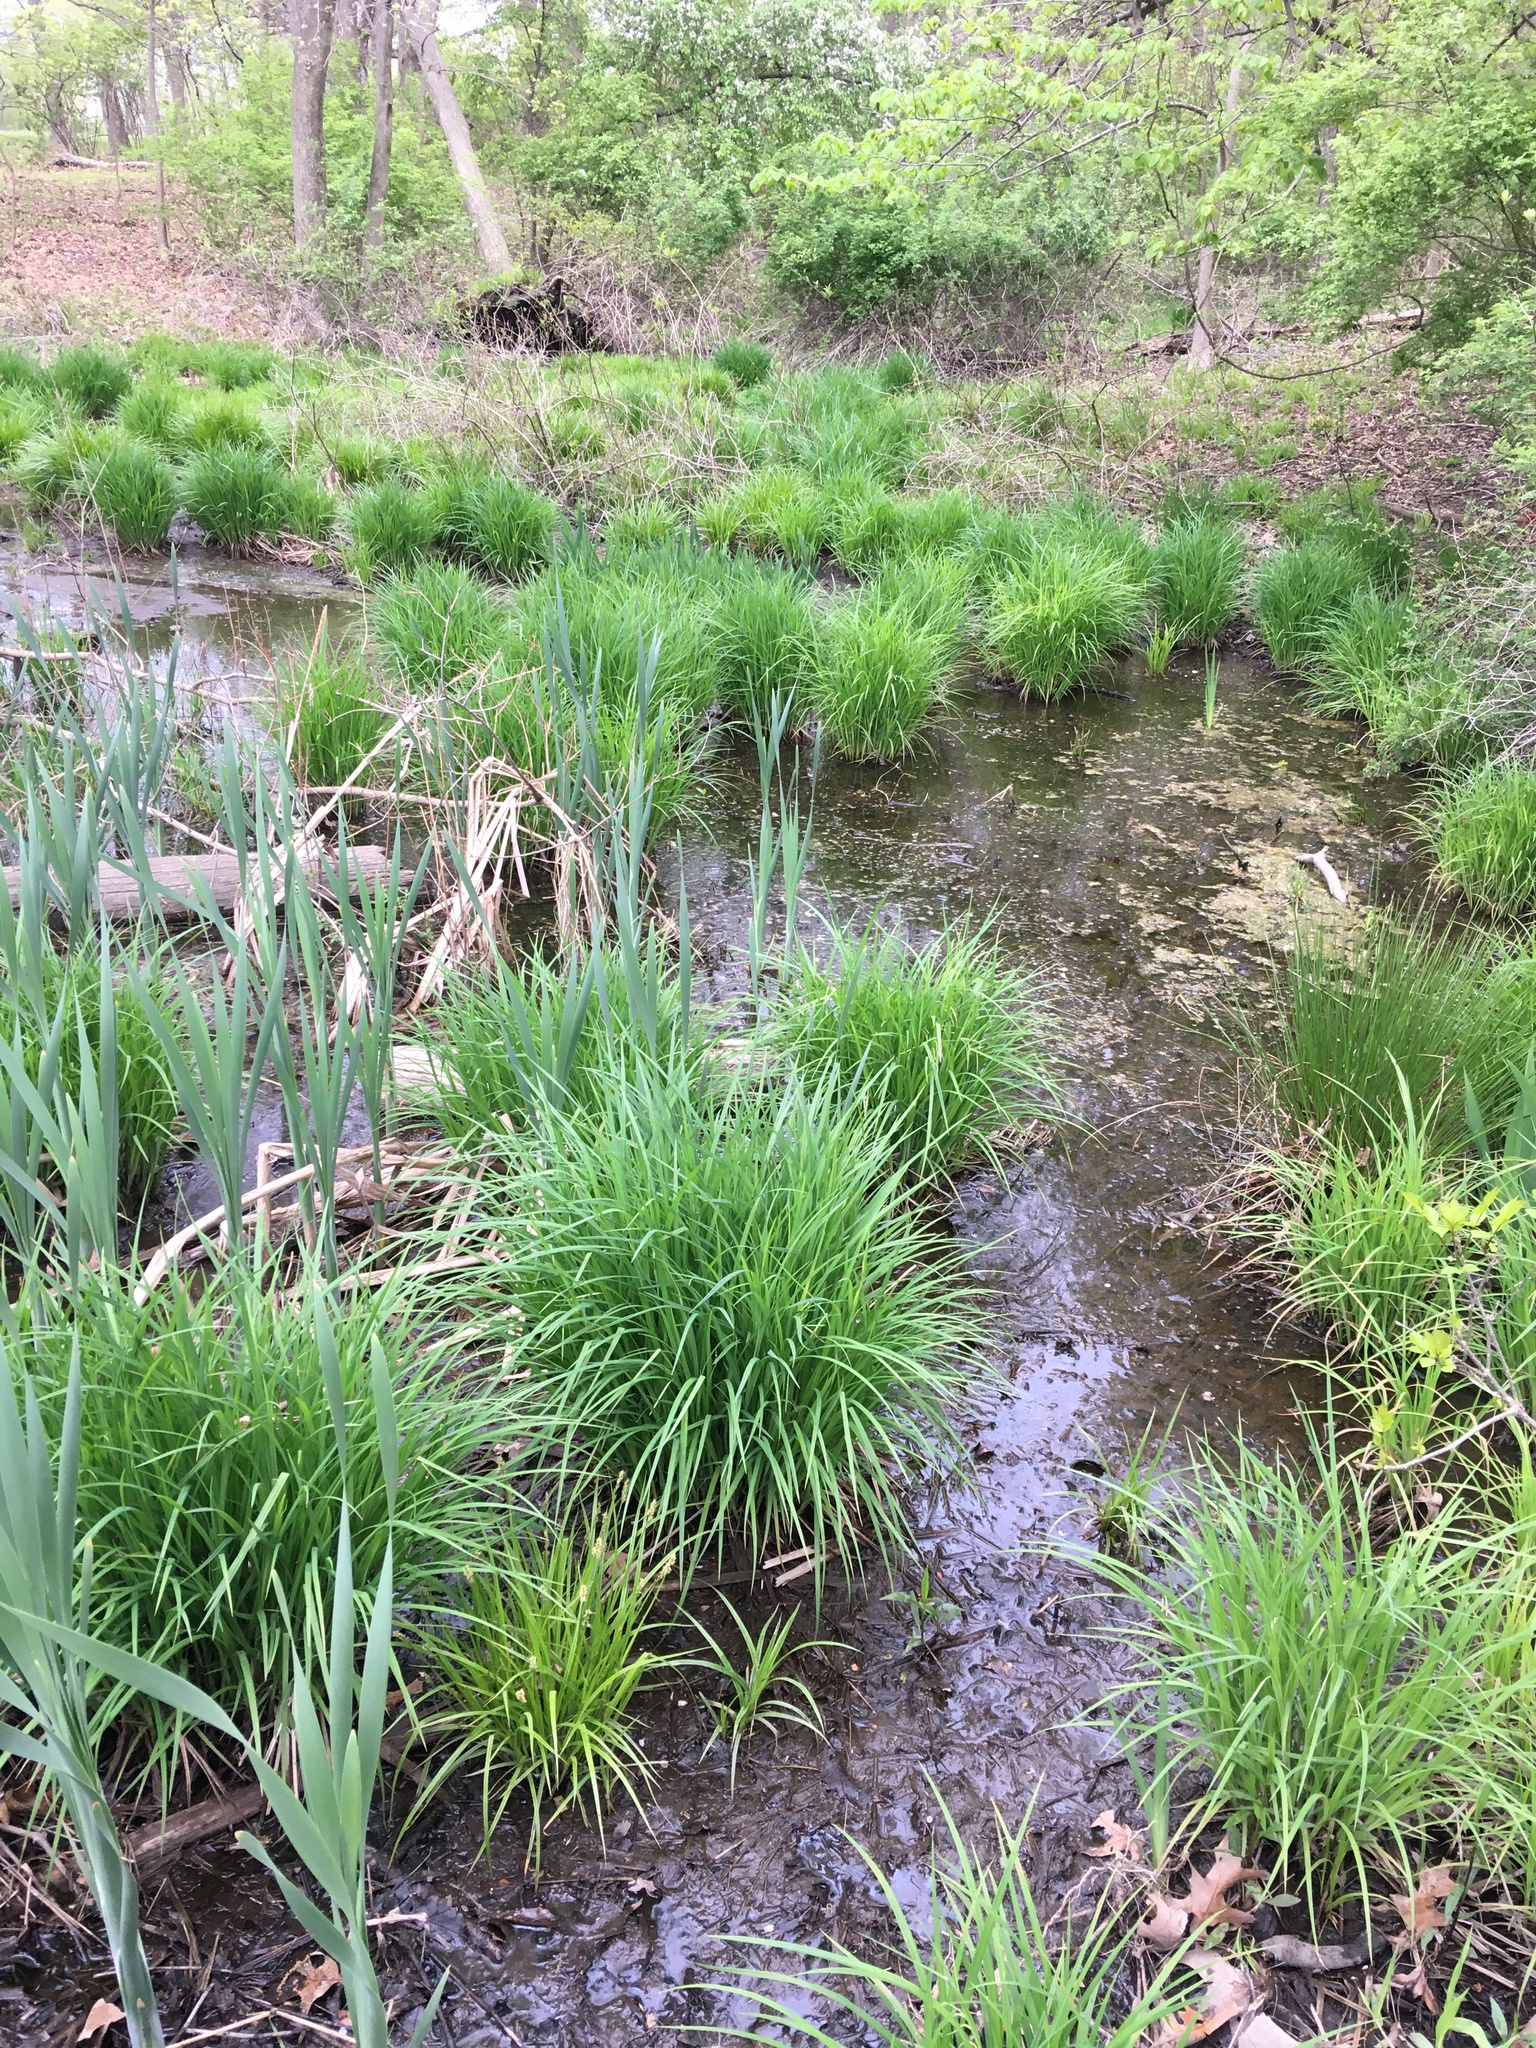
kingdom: Plantae
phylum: Tracheophyta
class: Liliopsida
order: Poales
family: Cyperaceae
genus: Carex
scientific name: Carex stricta
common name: Hummock sedge
